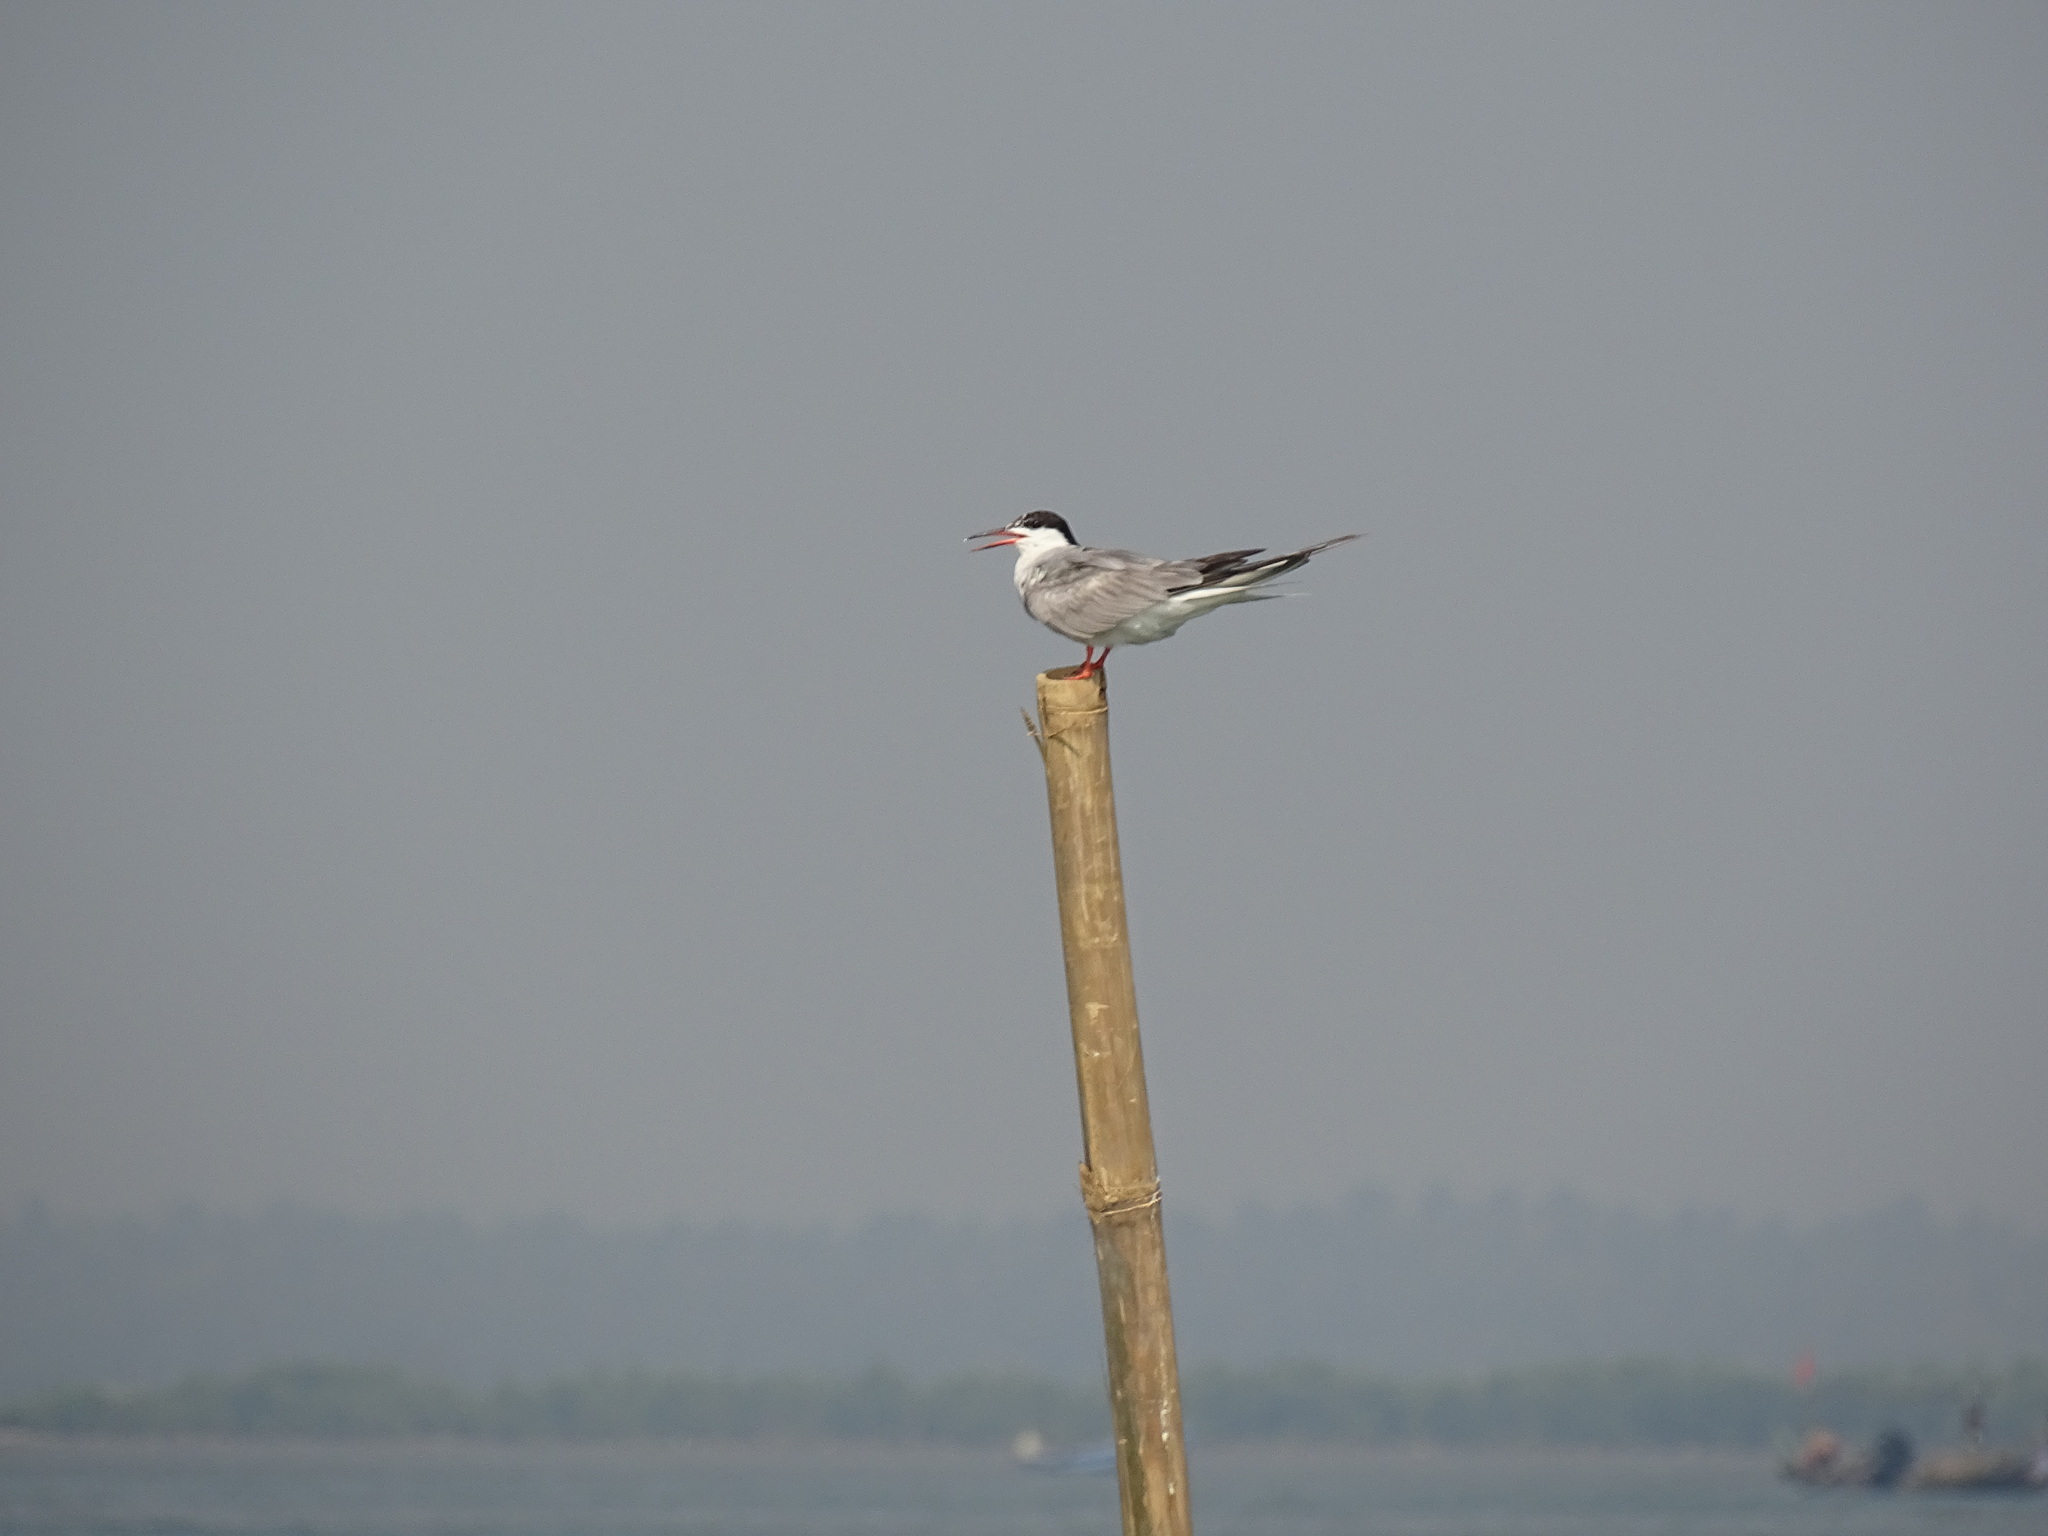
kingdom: Animalia
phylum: Chordata
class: Aves
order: Charadriiformes
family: Laridae
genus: Sterna
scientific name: Sterna hirundo
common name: Common tern
